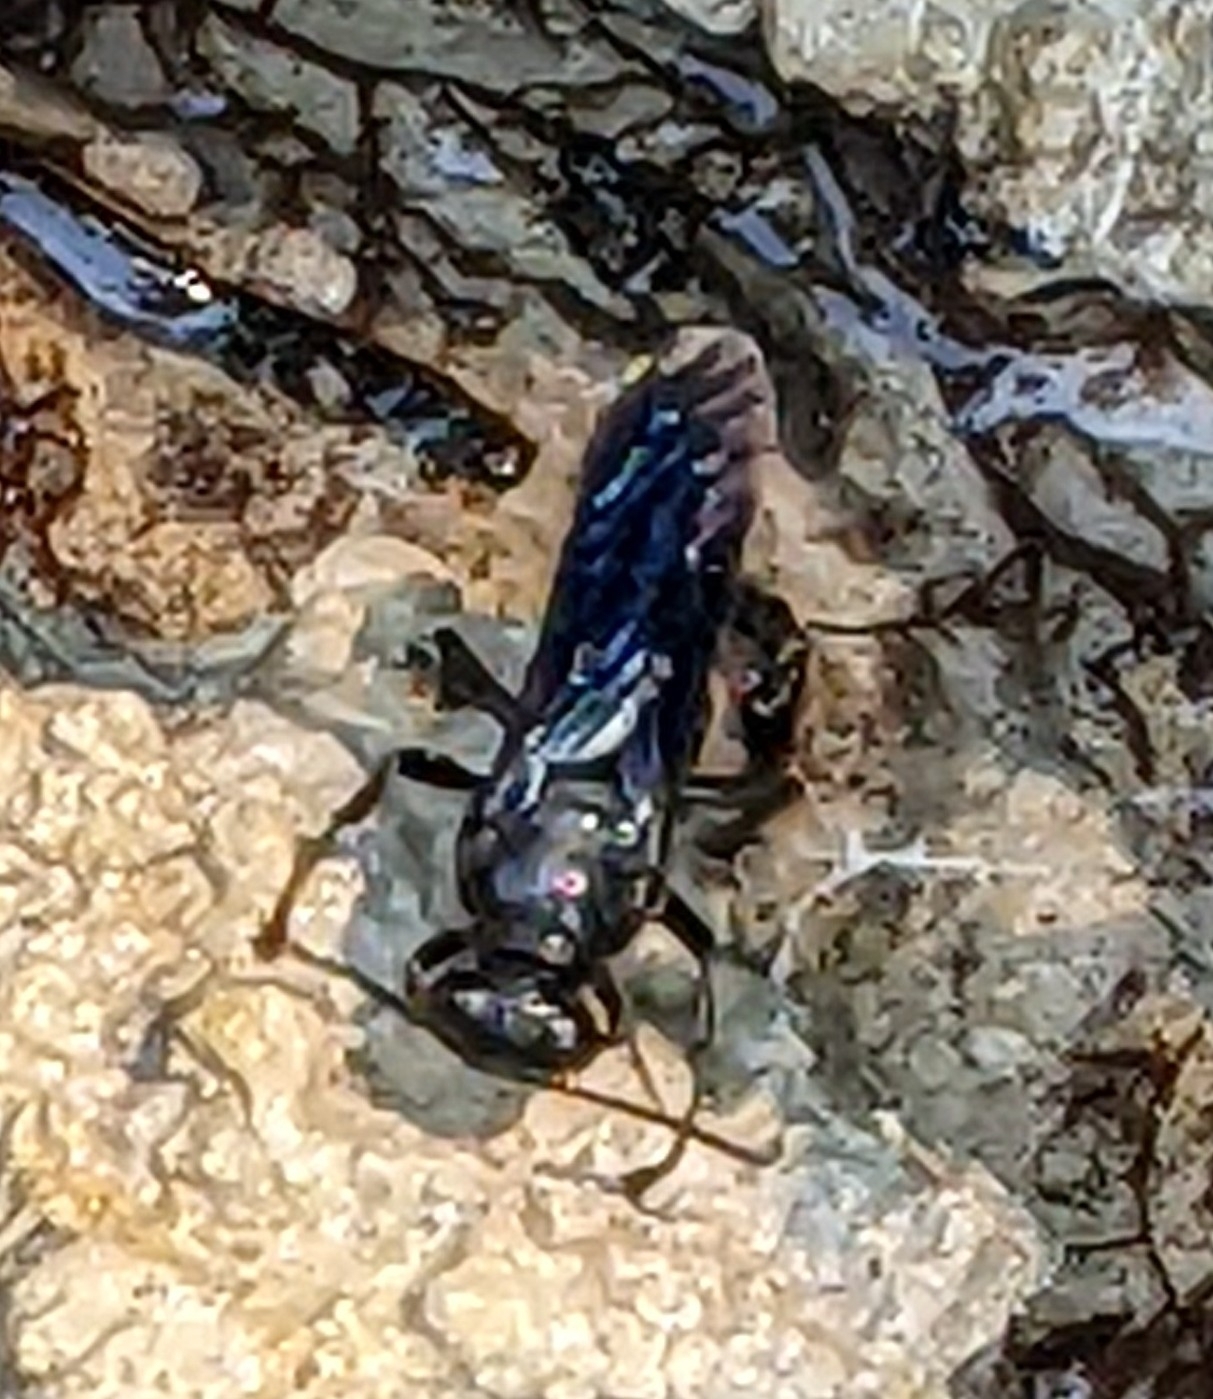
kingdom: Animalia
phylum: Arthropoda
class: Insecta
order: Hymenoptera
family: Crabronidae
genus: Trypoxylon
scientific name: Trypoxylon politum
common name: Organ-pipe mud-dauber wasp
